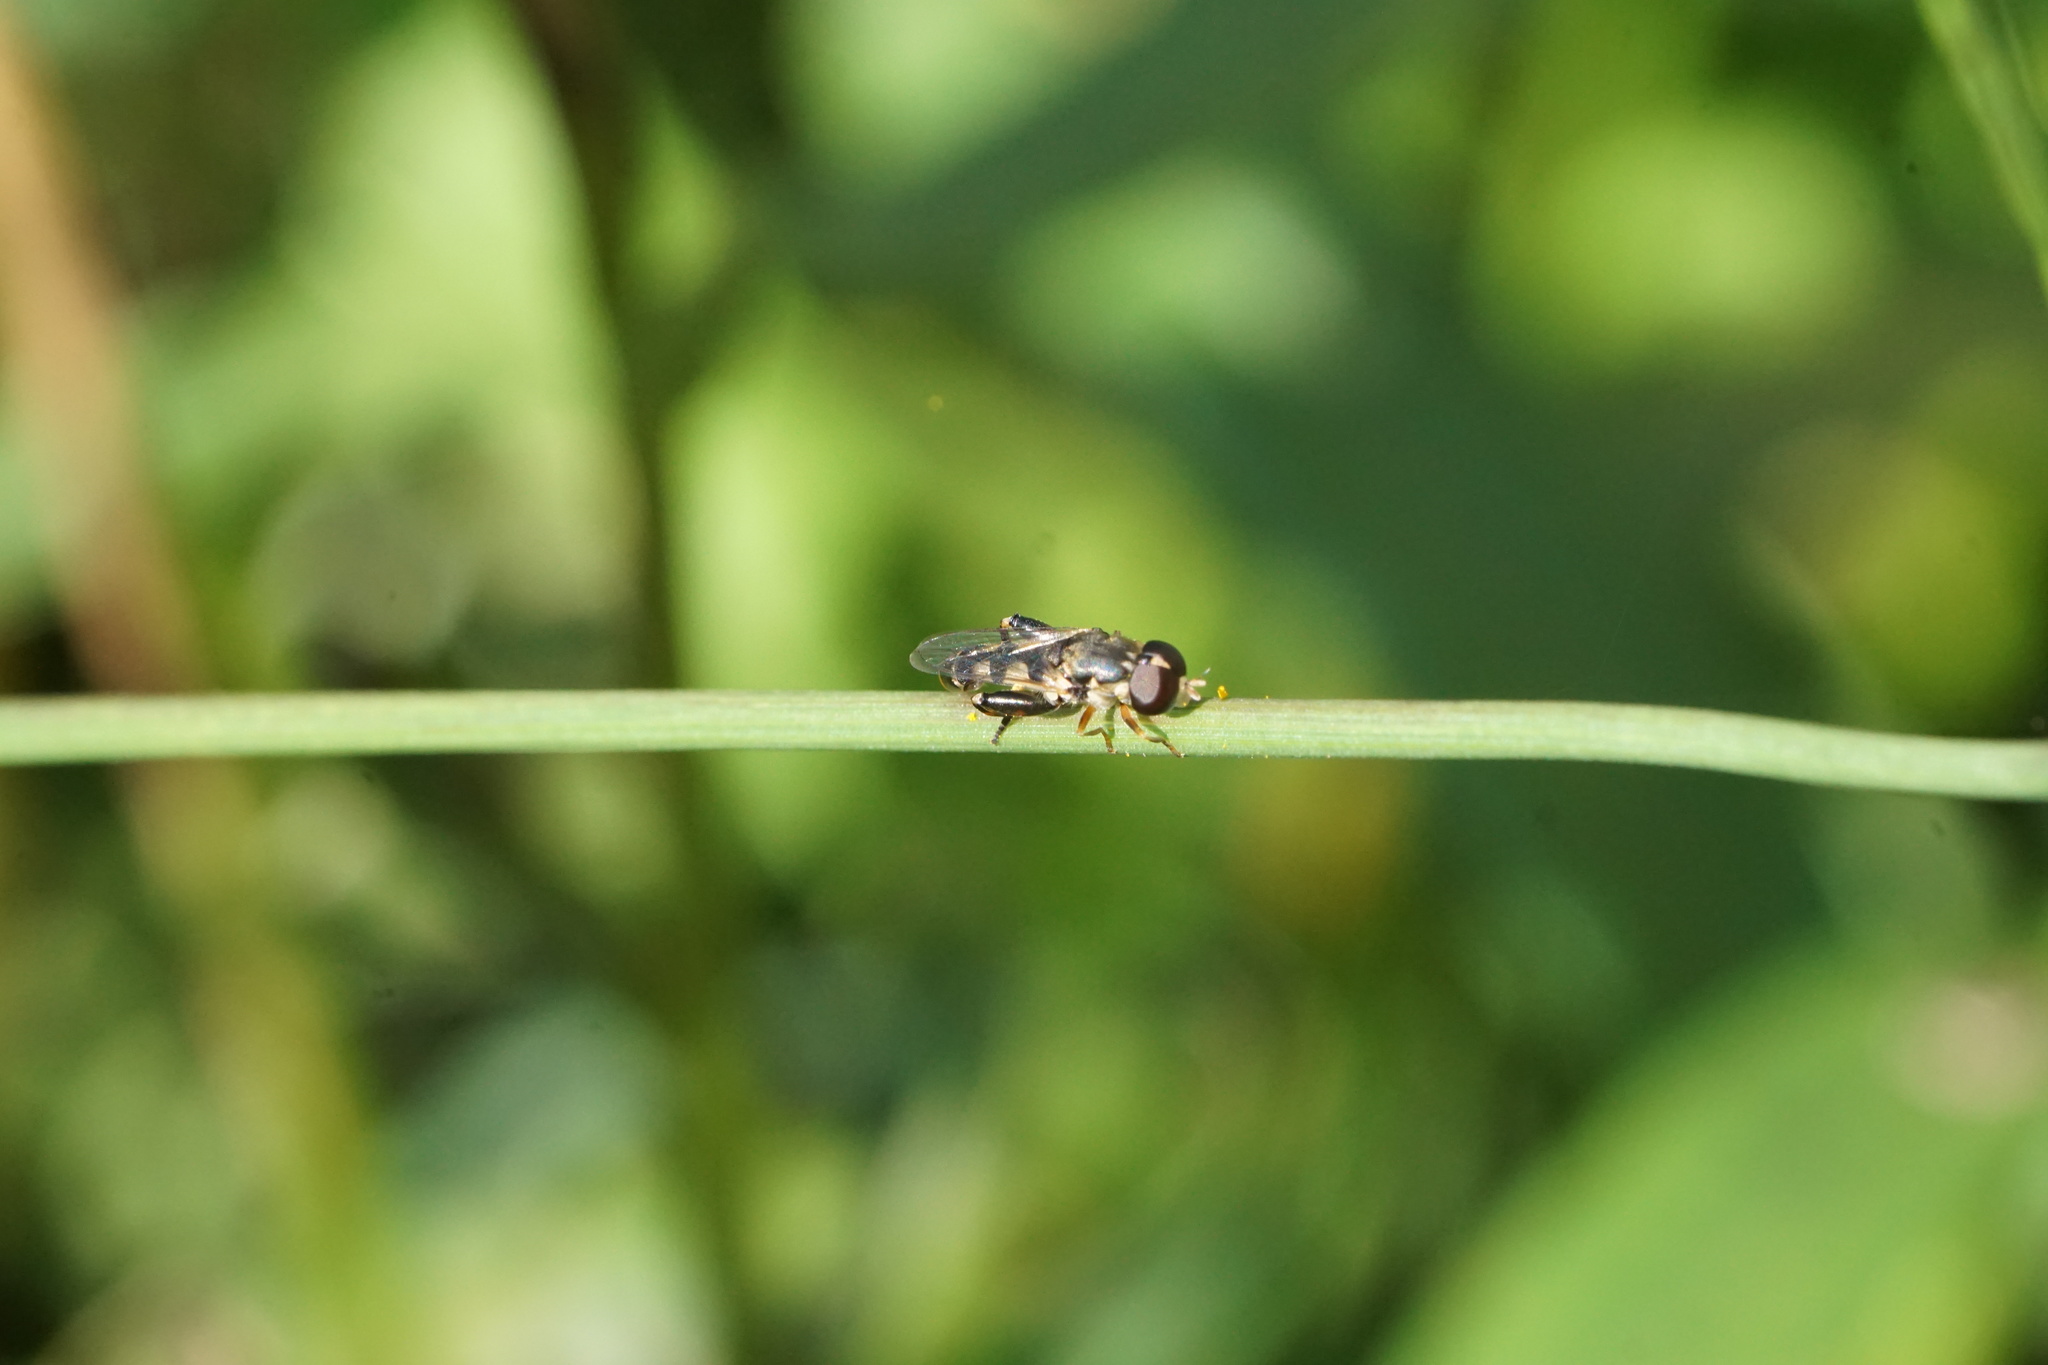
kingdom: Animalia
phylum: Arthropoda
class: Insecta
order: Diptera
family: Syrphidae
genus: Syritta
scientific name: Syritta pipiens
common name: Hover fly
